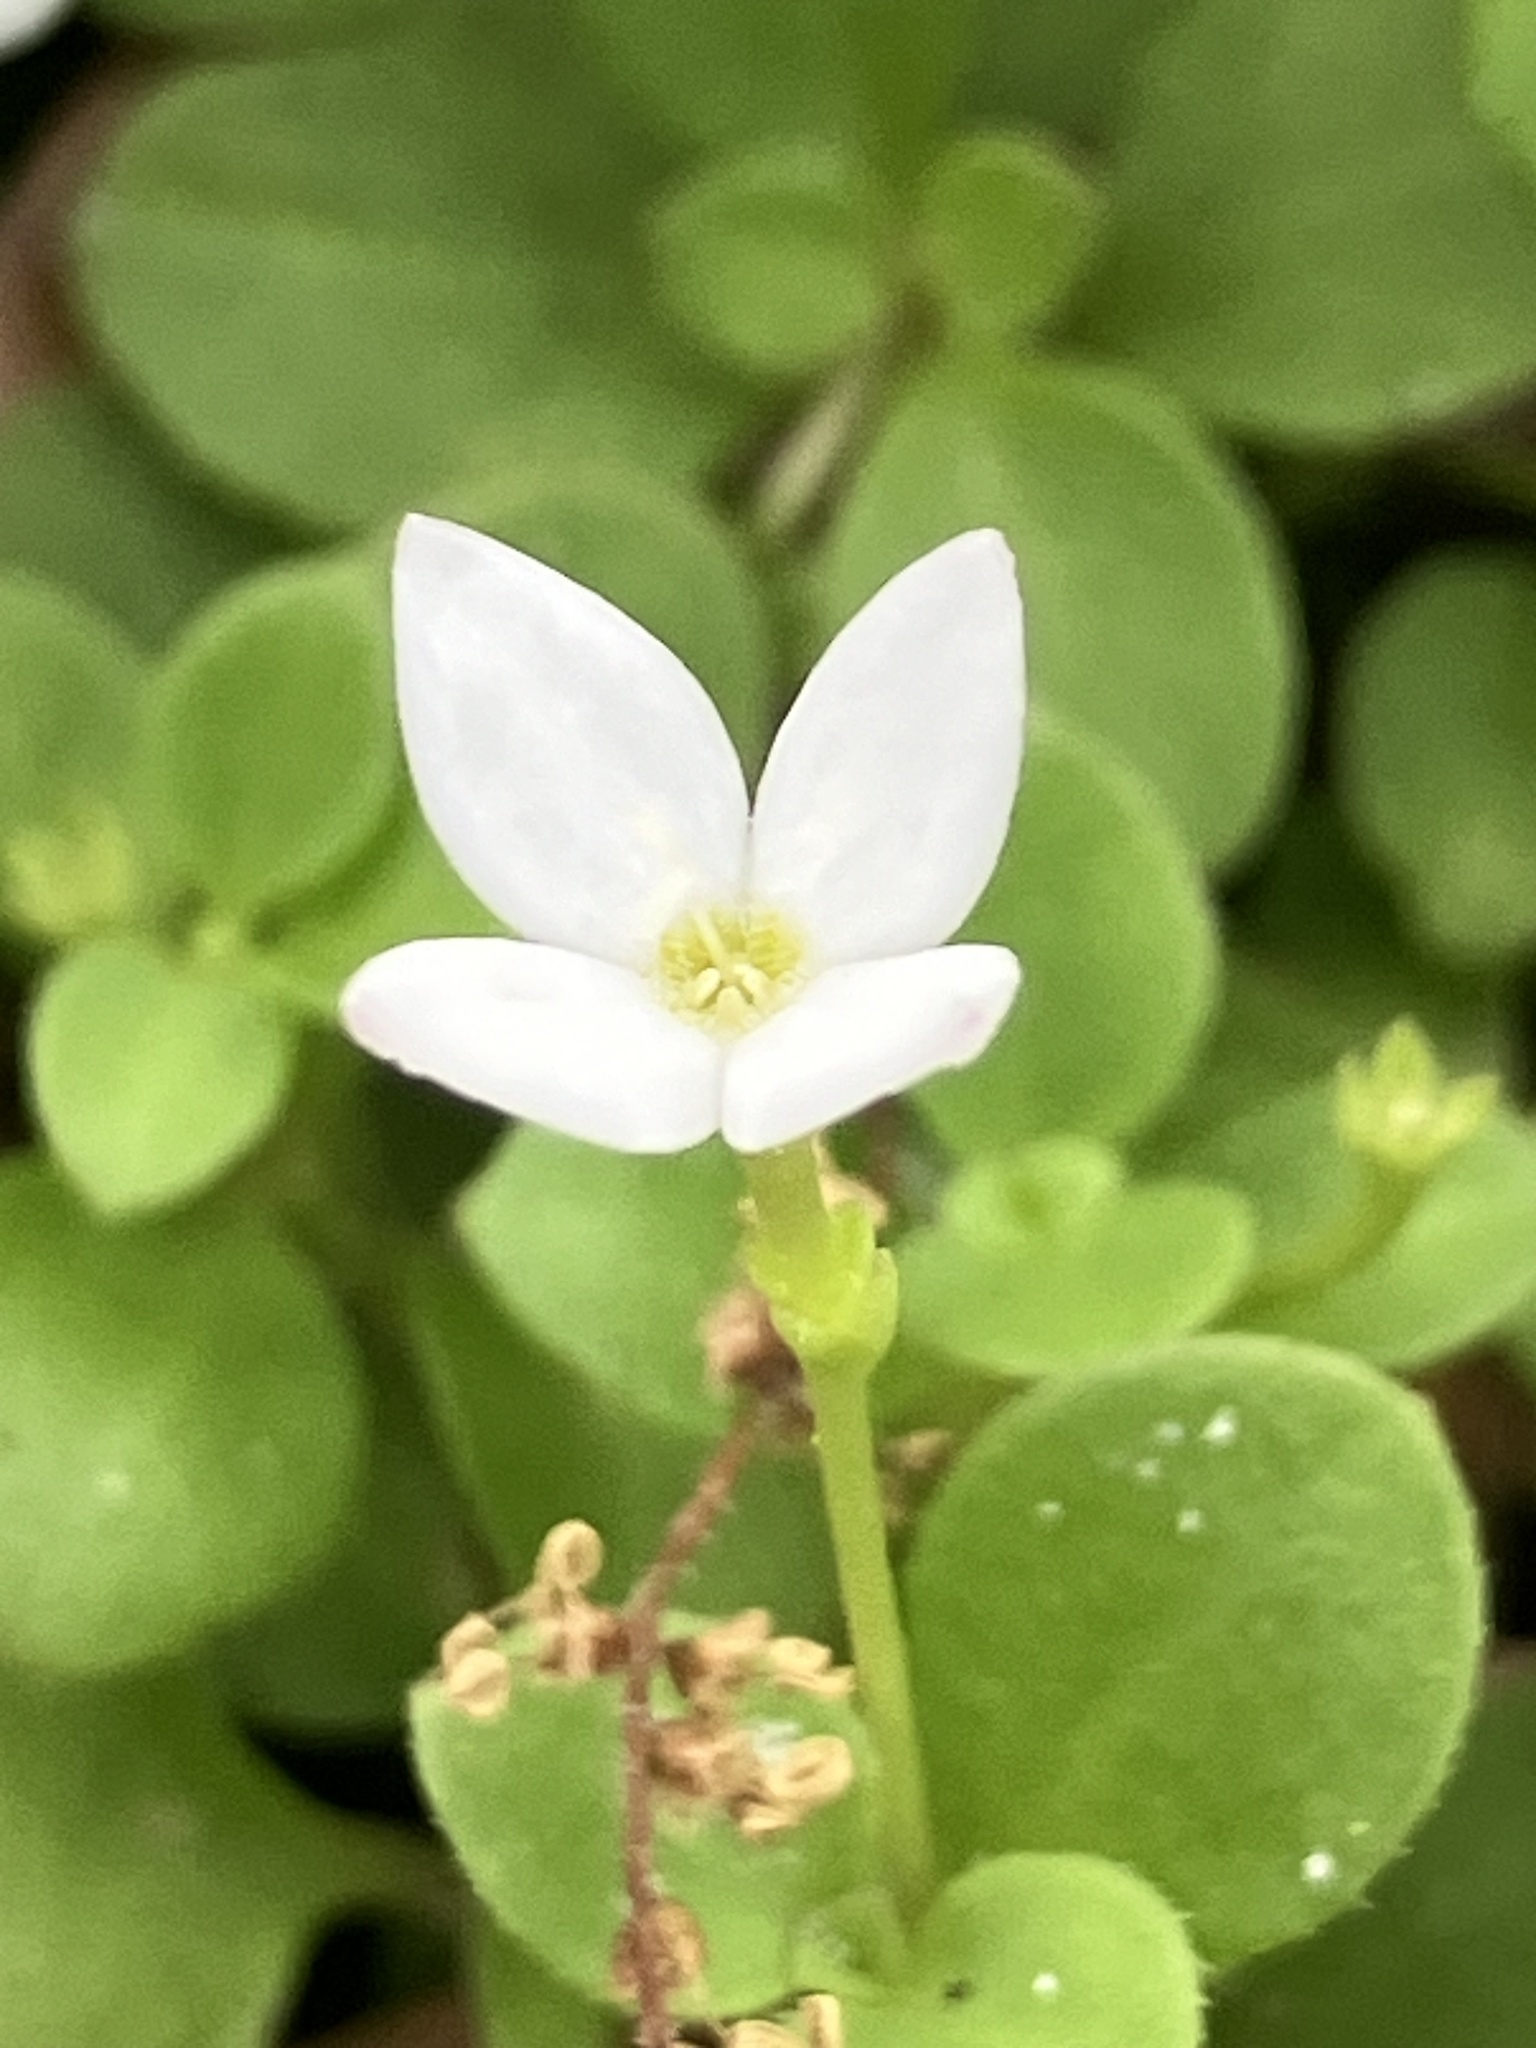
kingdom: Plantae
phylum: Tracheophyta
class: Magnoliopsida
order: Gentianales
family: Rubiaceae
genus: Houstonia
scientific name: Houstonia procumbens
